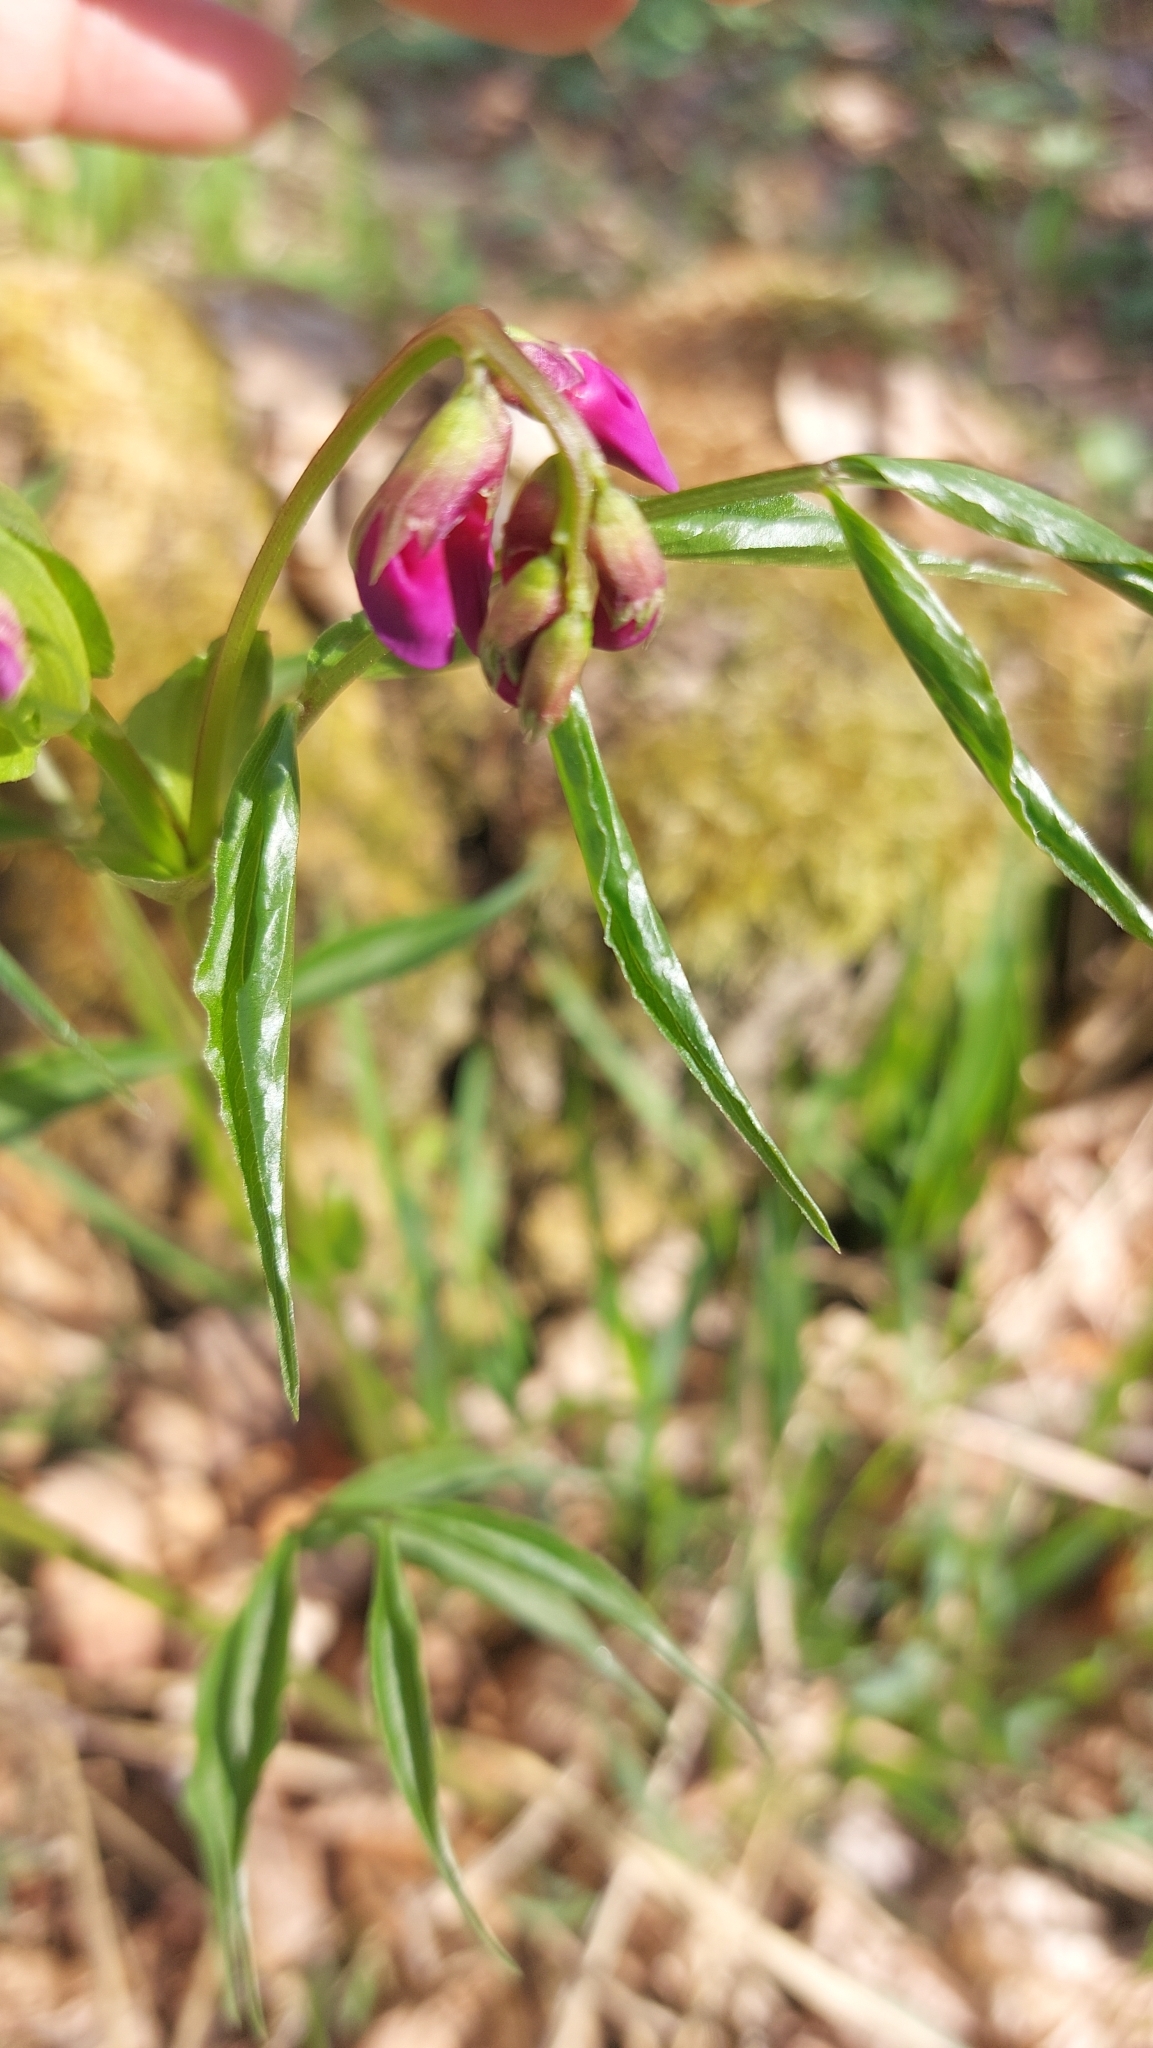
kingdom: Plantae
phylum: Tracheophyta
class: Magnoliopsida
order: Fabales
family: Fabaceae
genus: Lathyrus
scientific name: Lathyrus vernus
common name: Spring pea
